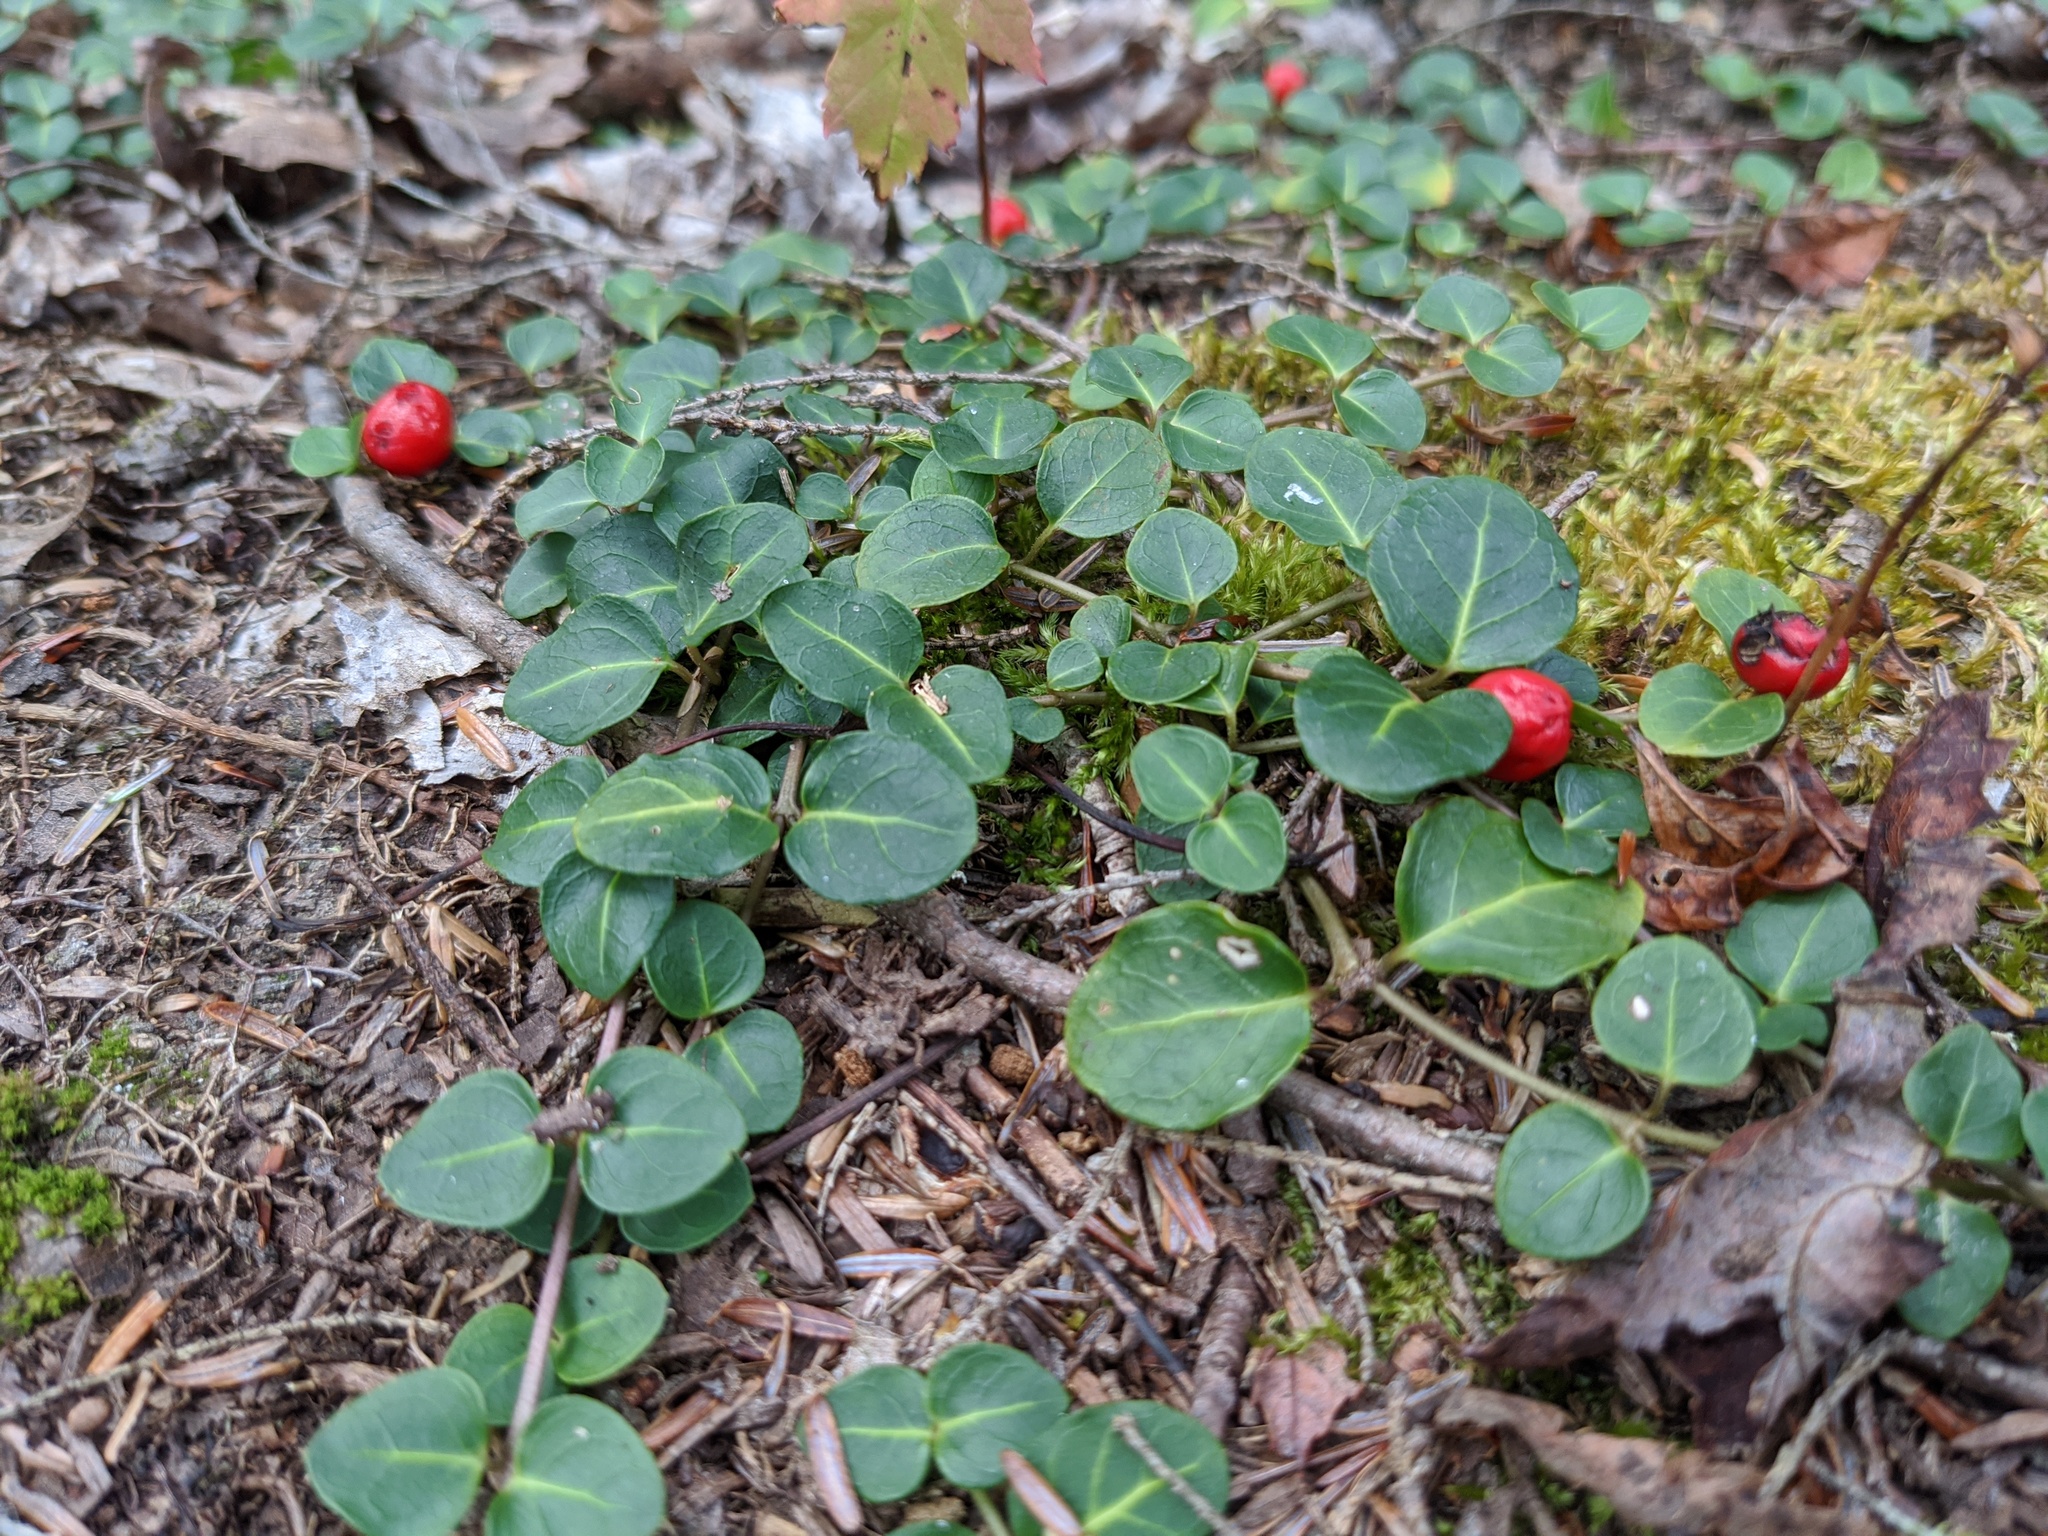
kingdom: Plantae
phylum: Tracheophyta
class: Magnoliopsida
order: Gentianales
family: Rubiaceae
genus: Mitchella
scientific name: Mitchella repens
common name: Partridge-berry
